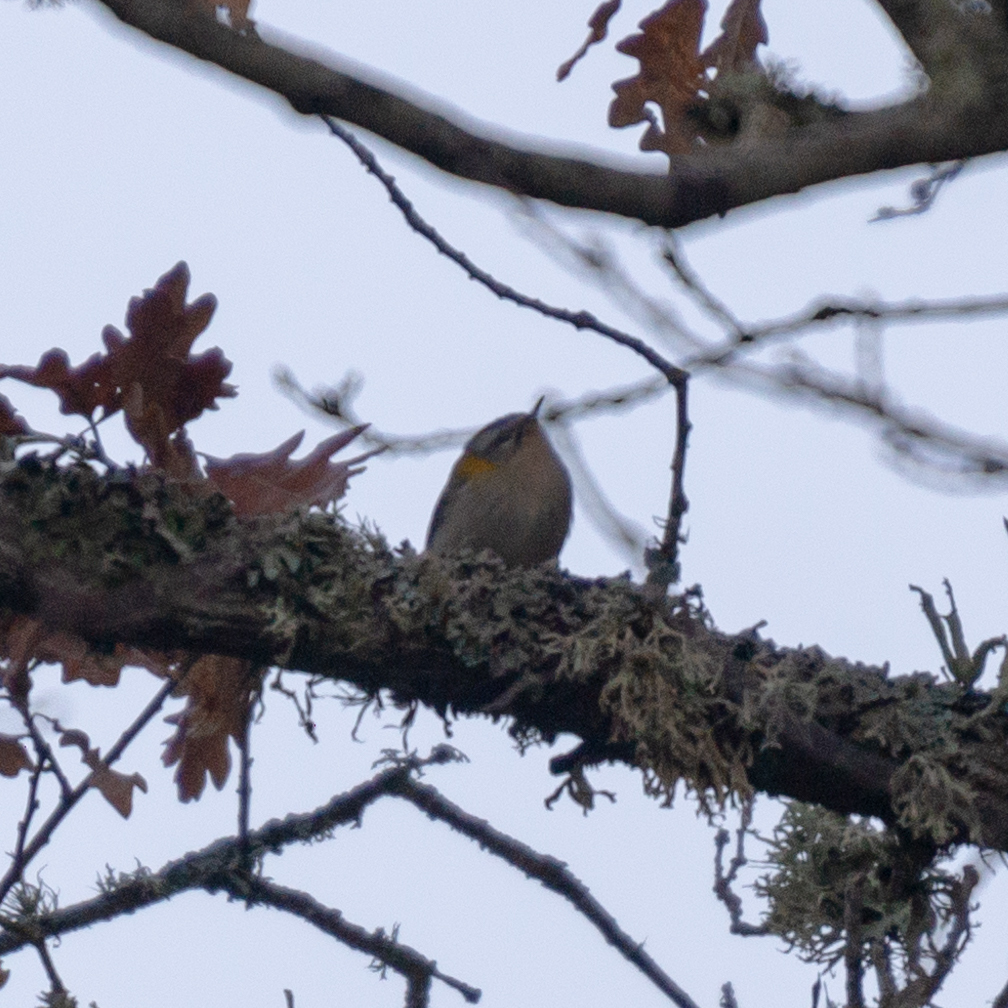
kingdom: Animalia
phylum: Chordata
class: Aves
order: Passeriformes
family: Regulidae
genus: Regulus
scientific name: Regulus ignicapilla
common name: Firecrest
